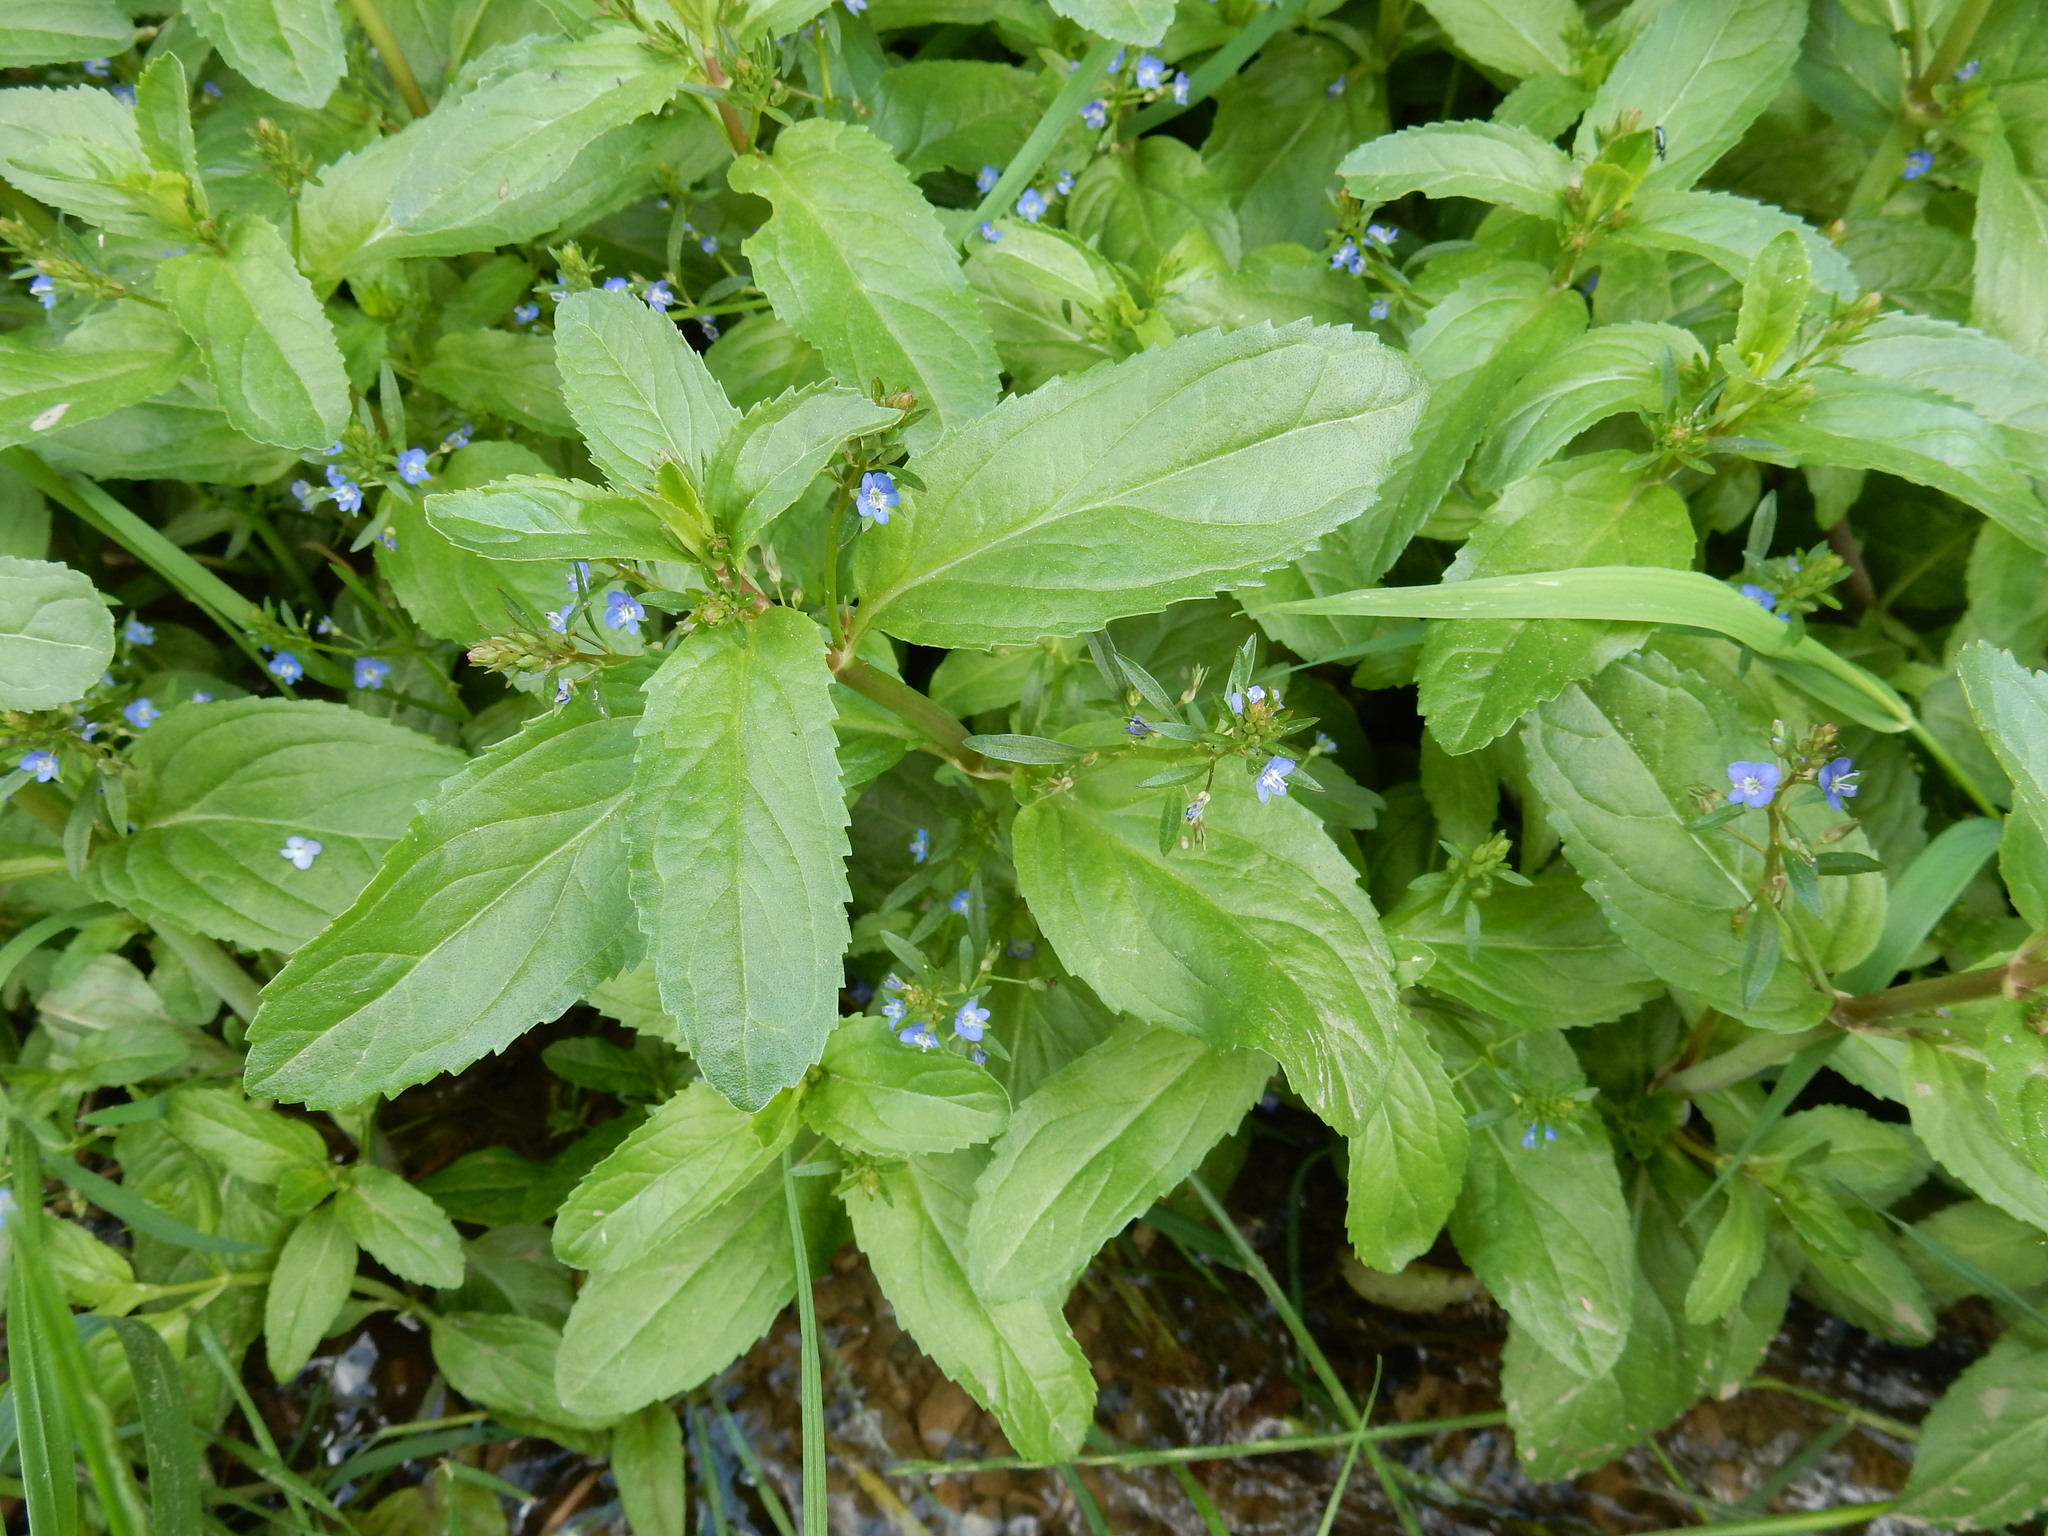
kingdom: Plantae
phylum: Tracheophyta
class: Magnoliopsida
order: Lamiales
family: Plantaginaceae
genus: Veronica
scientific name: Veronica beccabunga
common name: Brooklime
